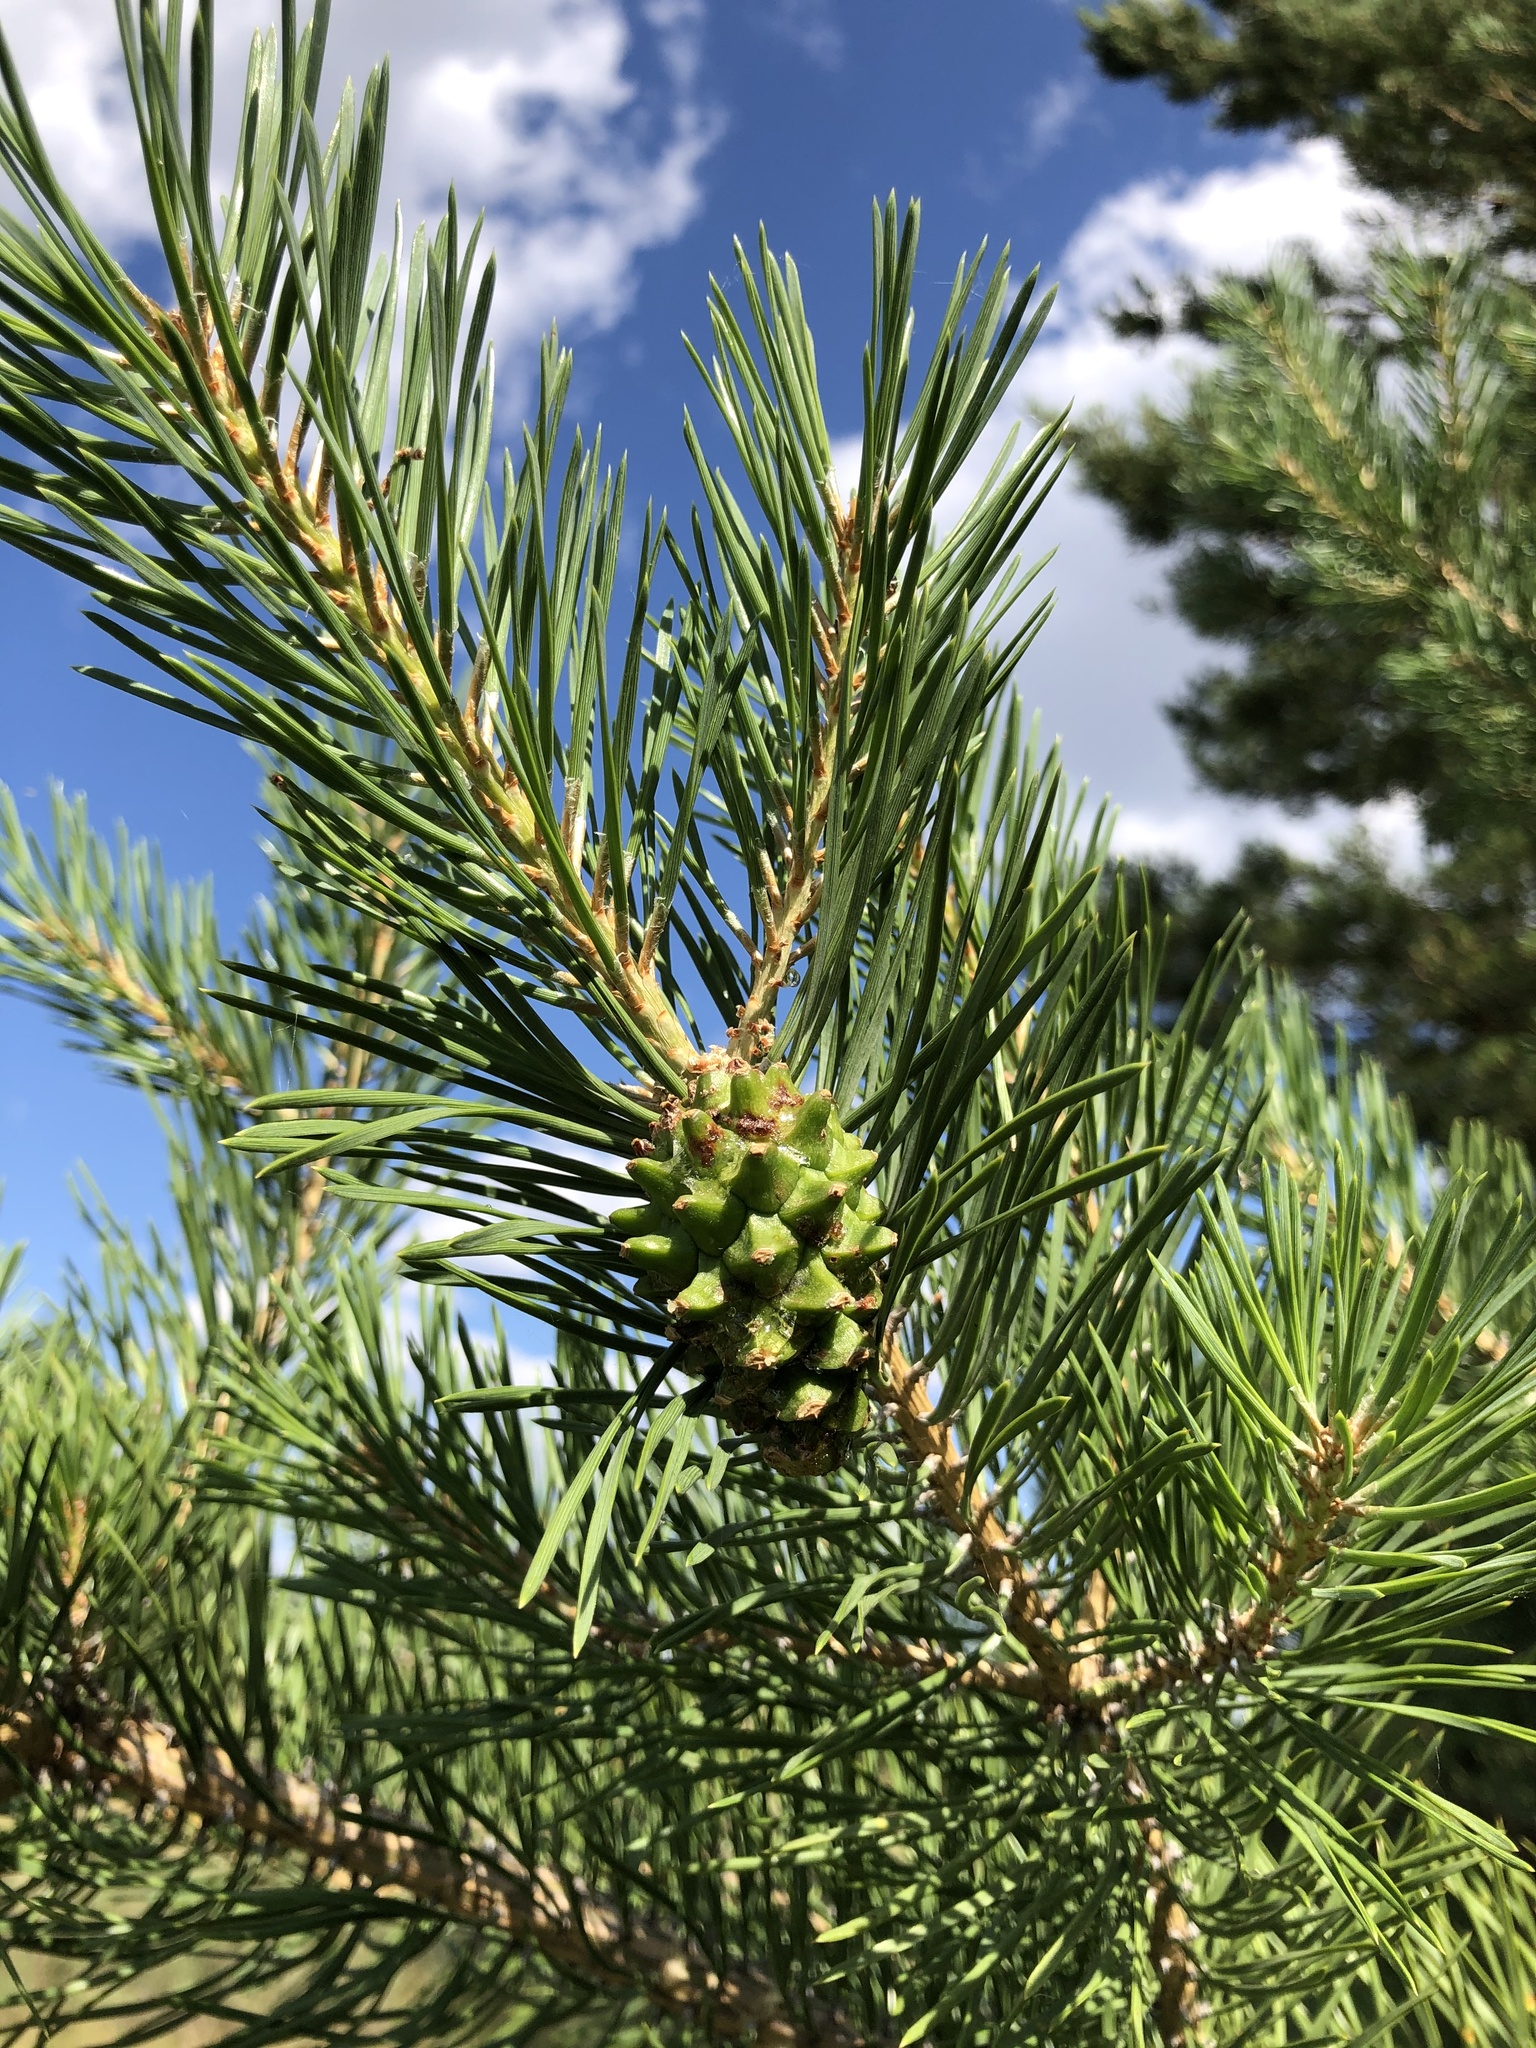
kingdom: Plantae
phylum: Tracheophyta
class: Pinopsida
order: Pinales
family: Pinaceae
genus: Pinus
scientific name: Pinus sylvestris
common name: Scots pine
